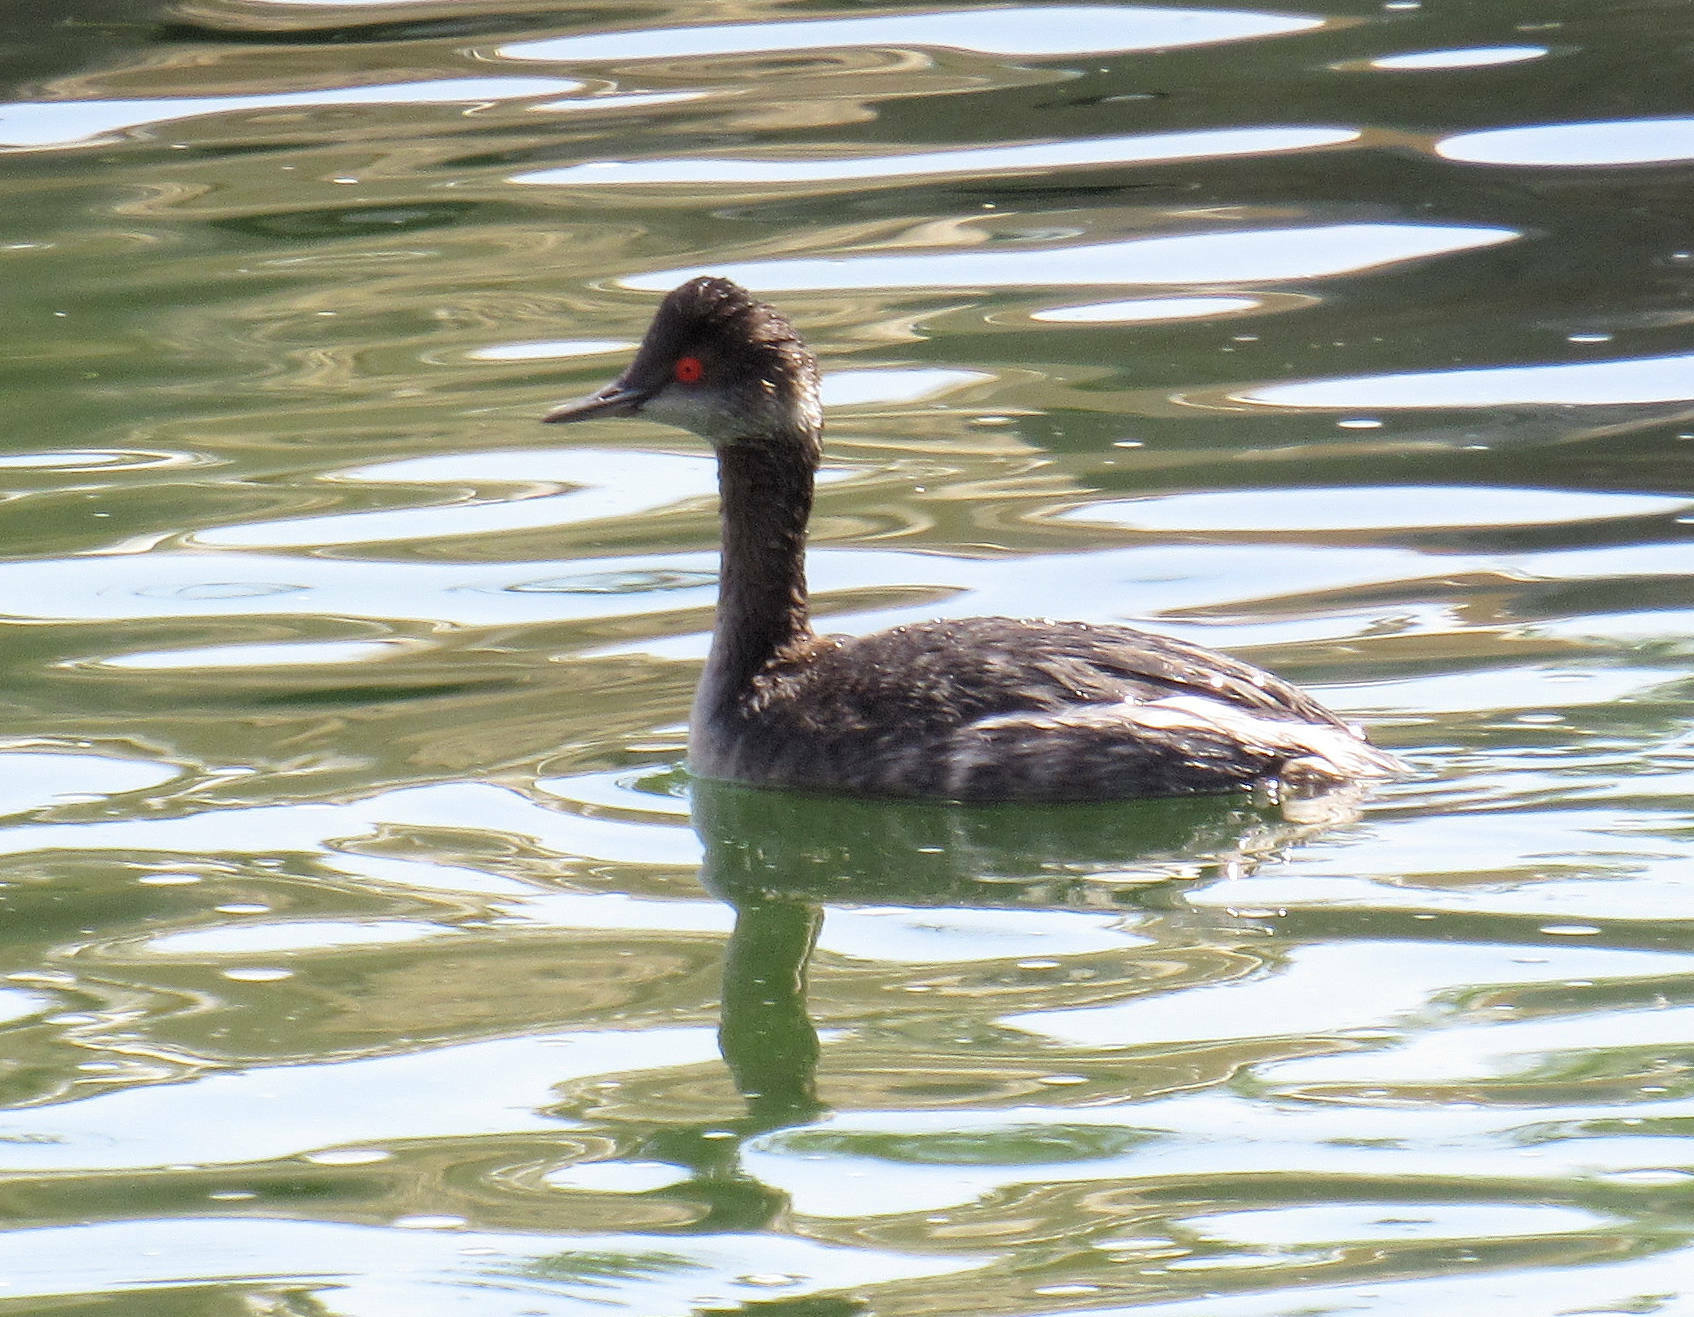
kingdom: Animalia
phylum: Chordata
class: Aves
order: Podicipediformes
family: Podicipedidae
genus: Podiceps
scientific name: Podiceps nigricollis
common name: Black-necked grebe
